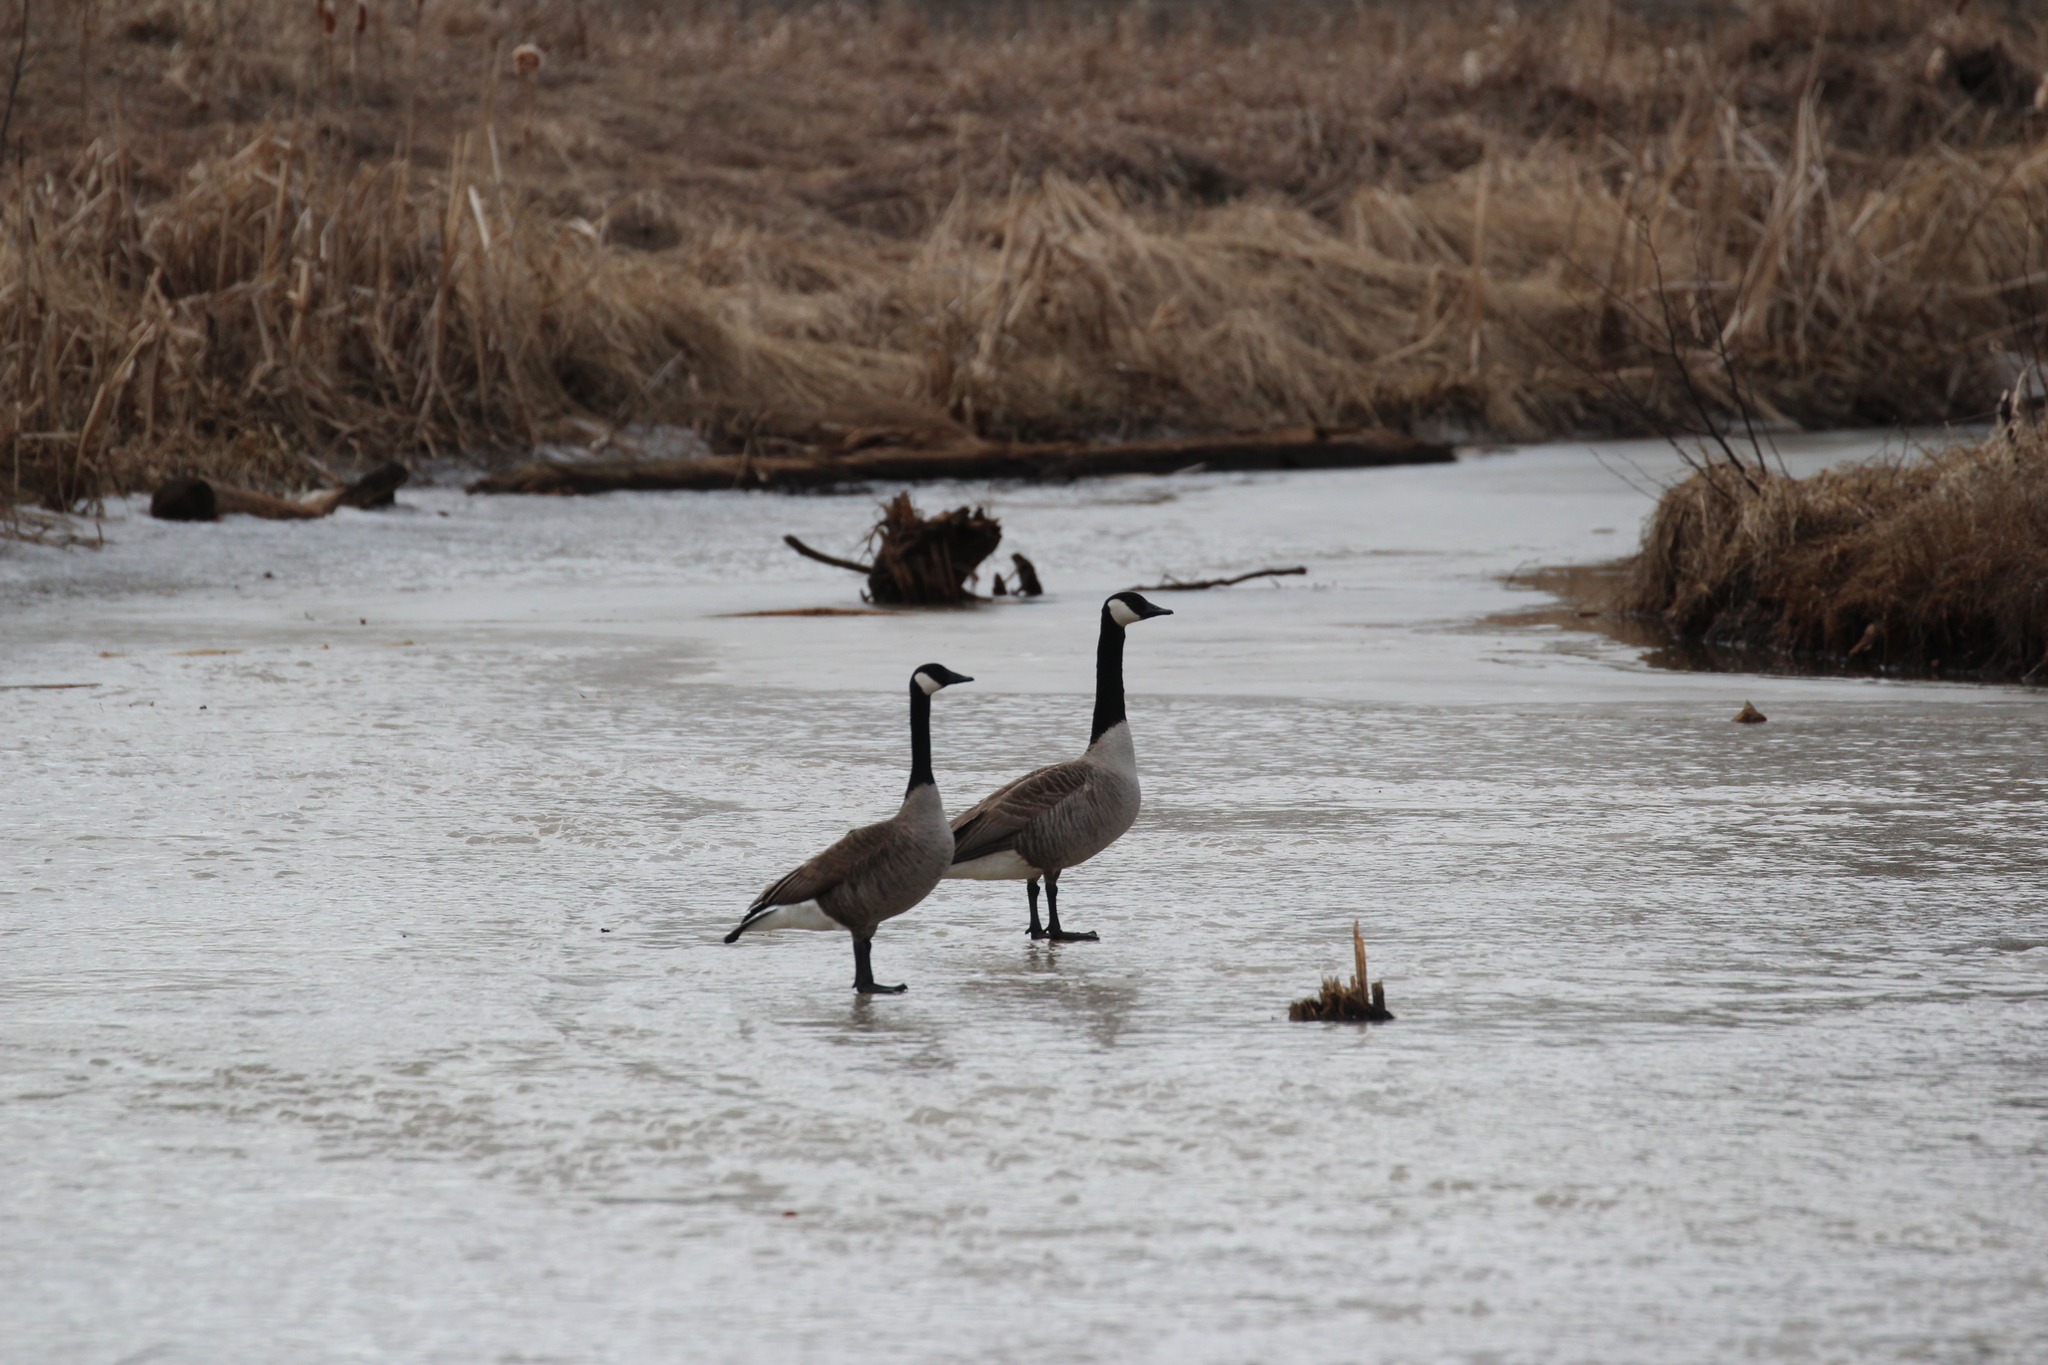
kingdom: Animalia
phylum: Chordata
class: Aves
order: Anseriformes
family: Anatidae
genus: Branta
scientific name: Branta canadensis
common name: Canada goose
